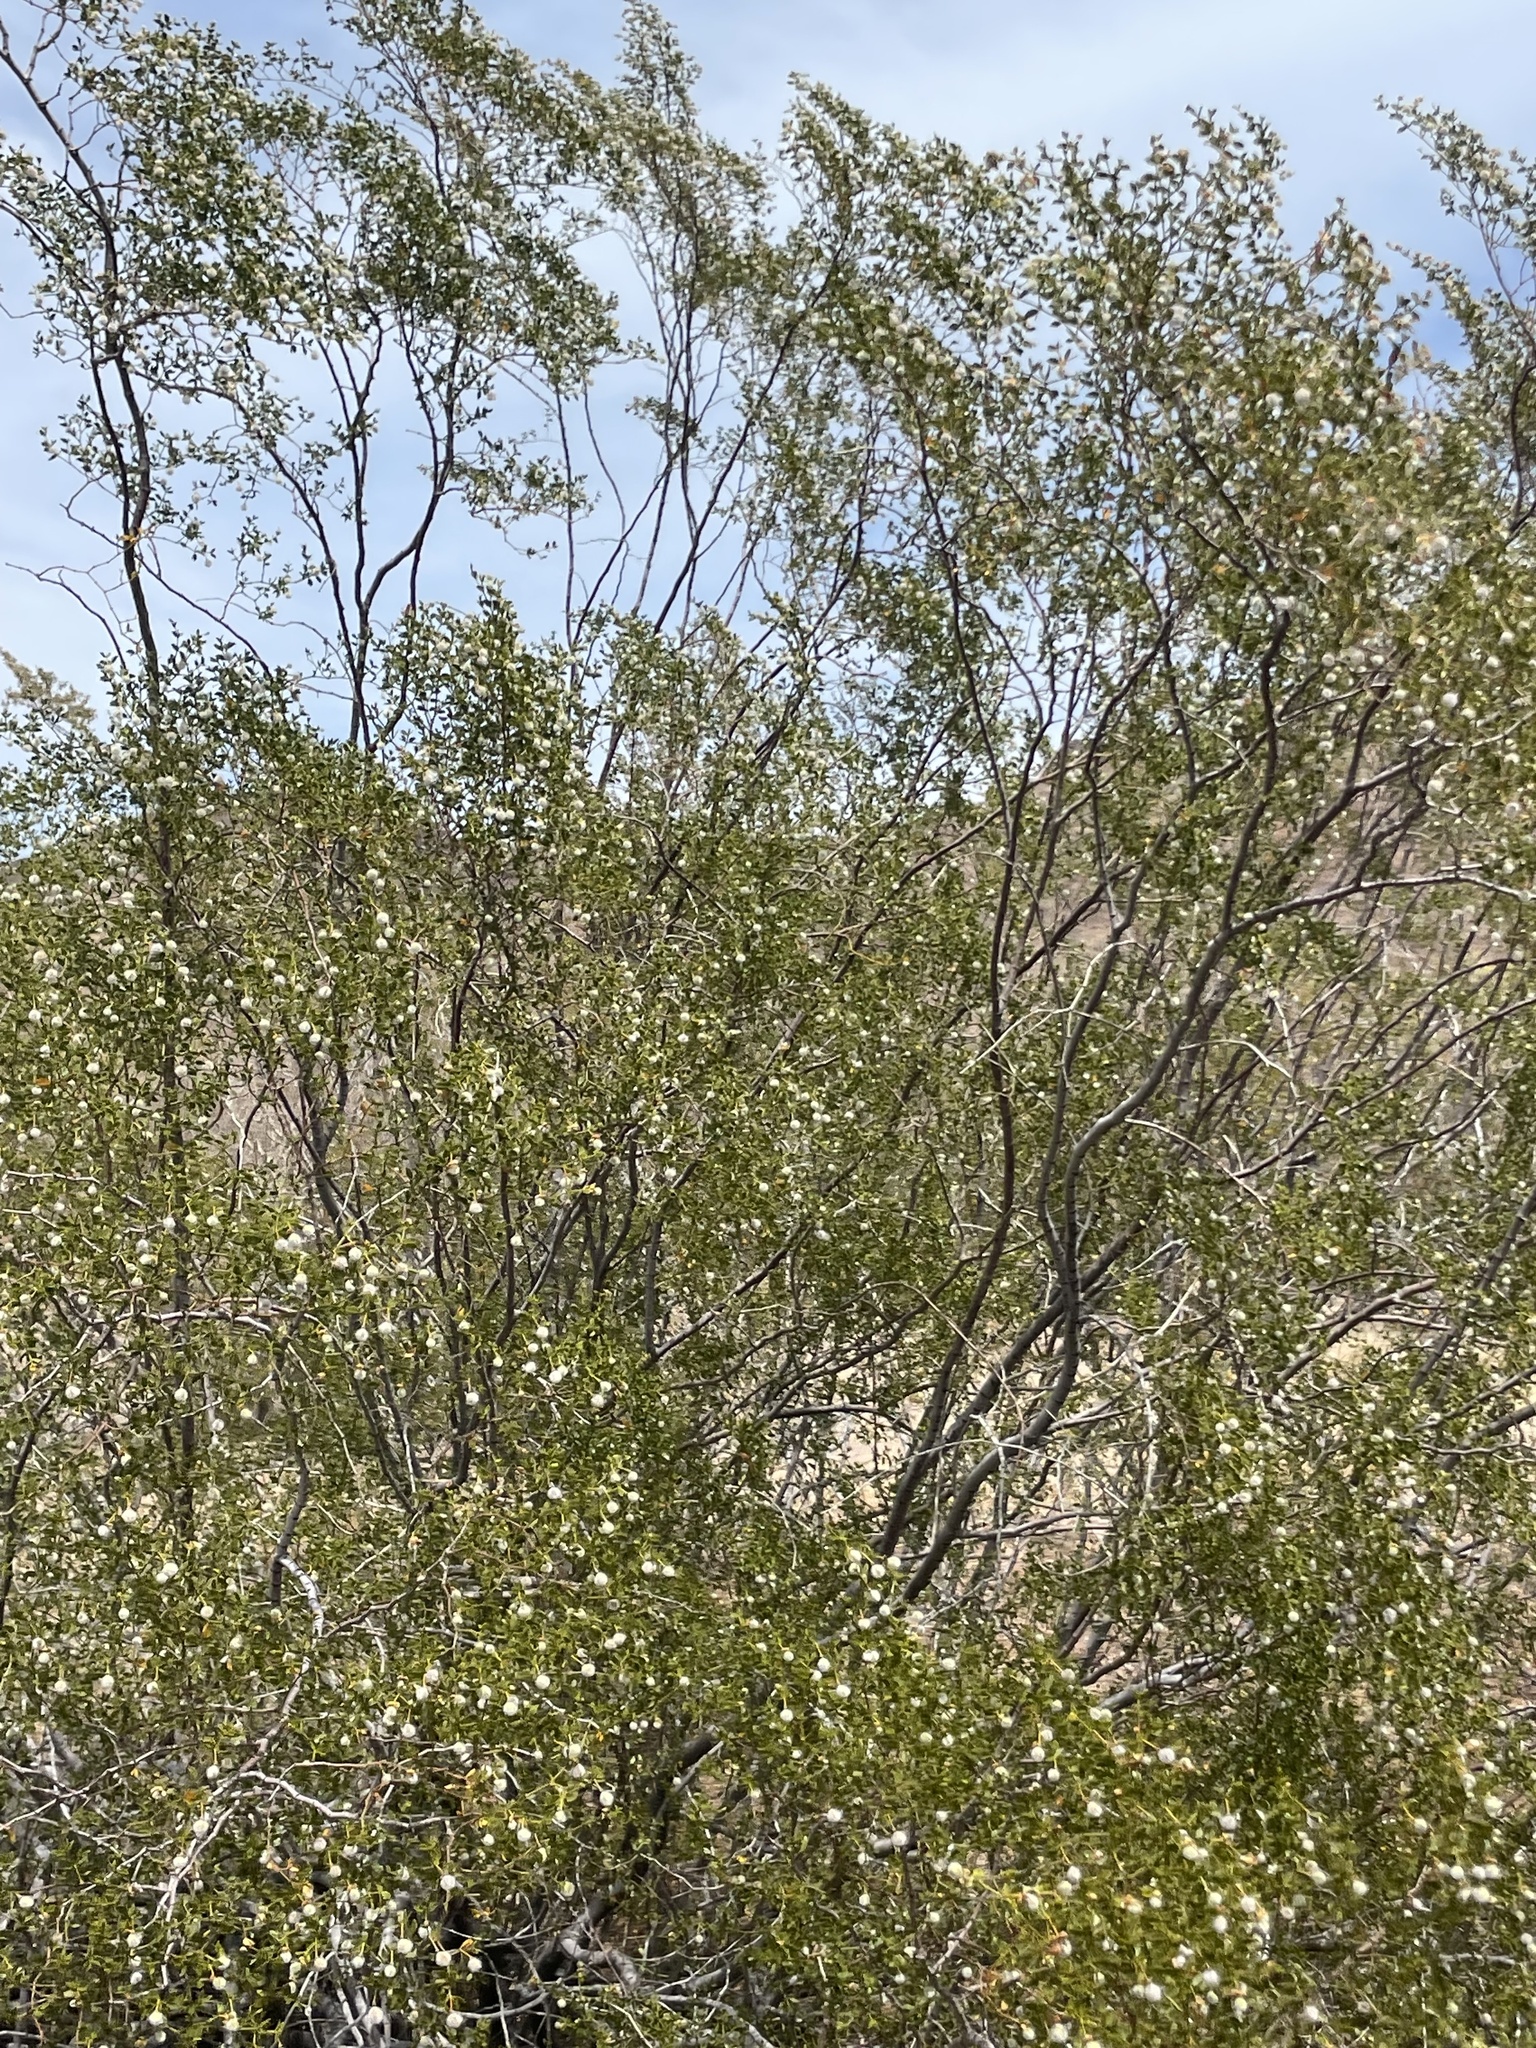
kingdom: Plantae
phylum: Tracheophyta
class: Magnoliopsida
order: Zygophyllales
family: Zygophyllaceae
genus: Larrea
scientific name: Larrea tridentata
